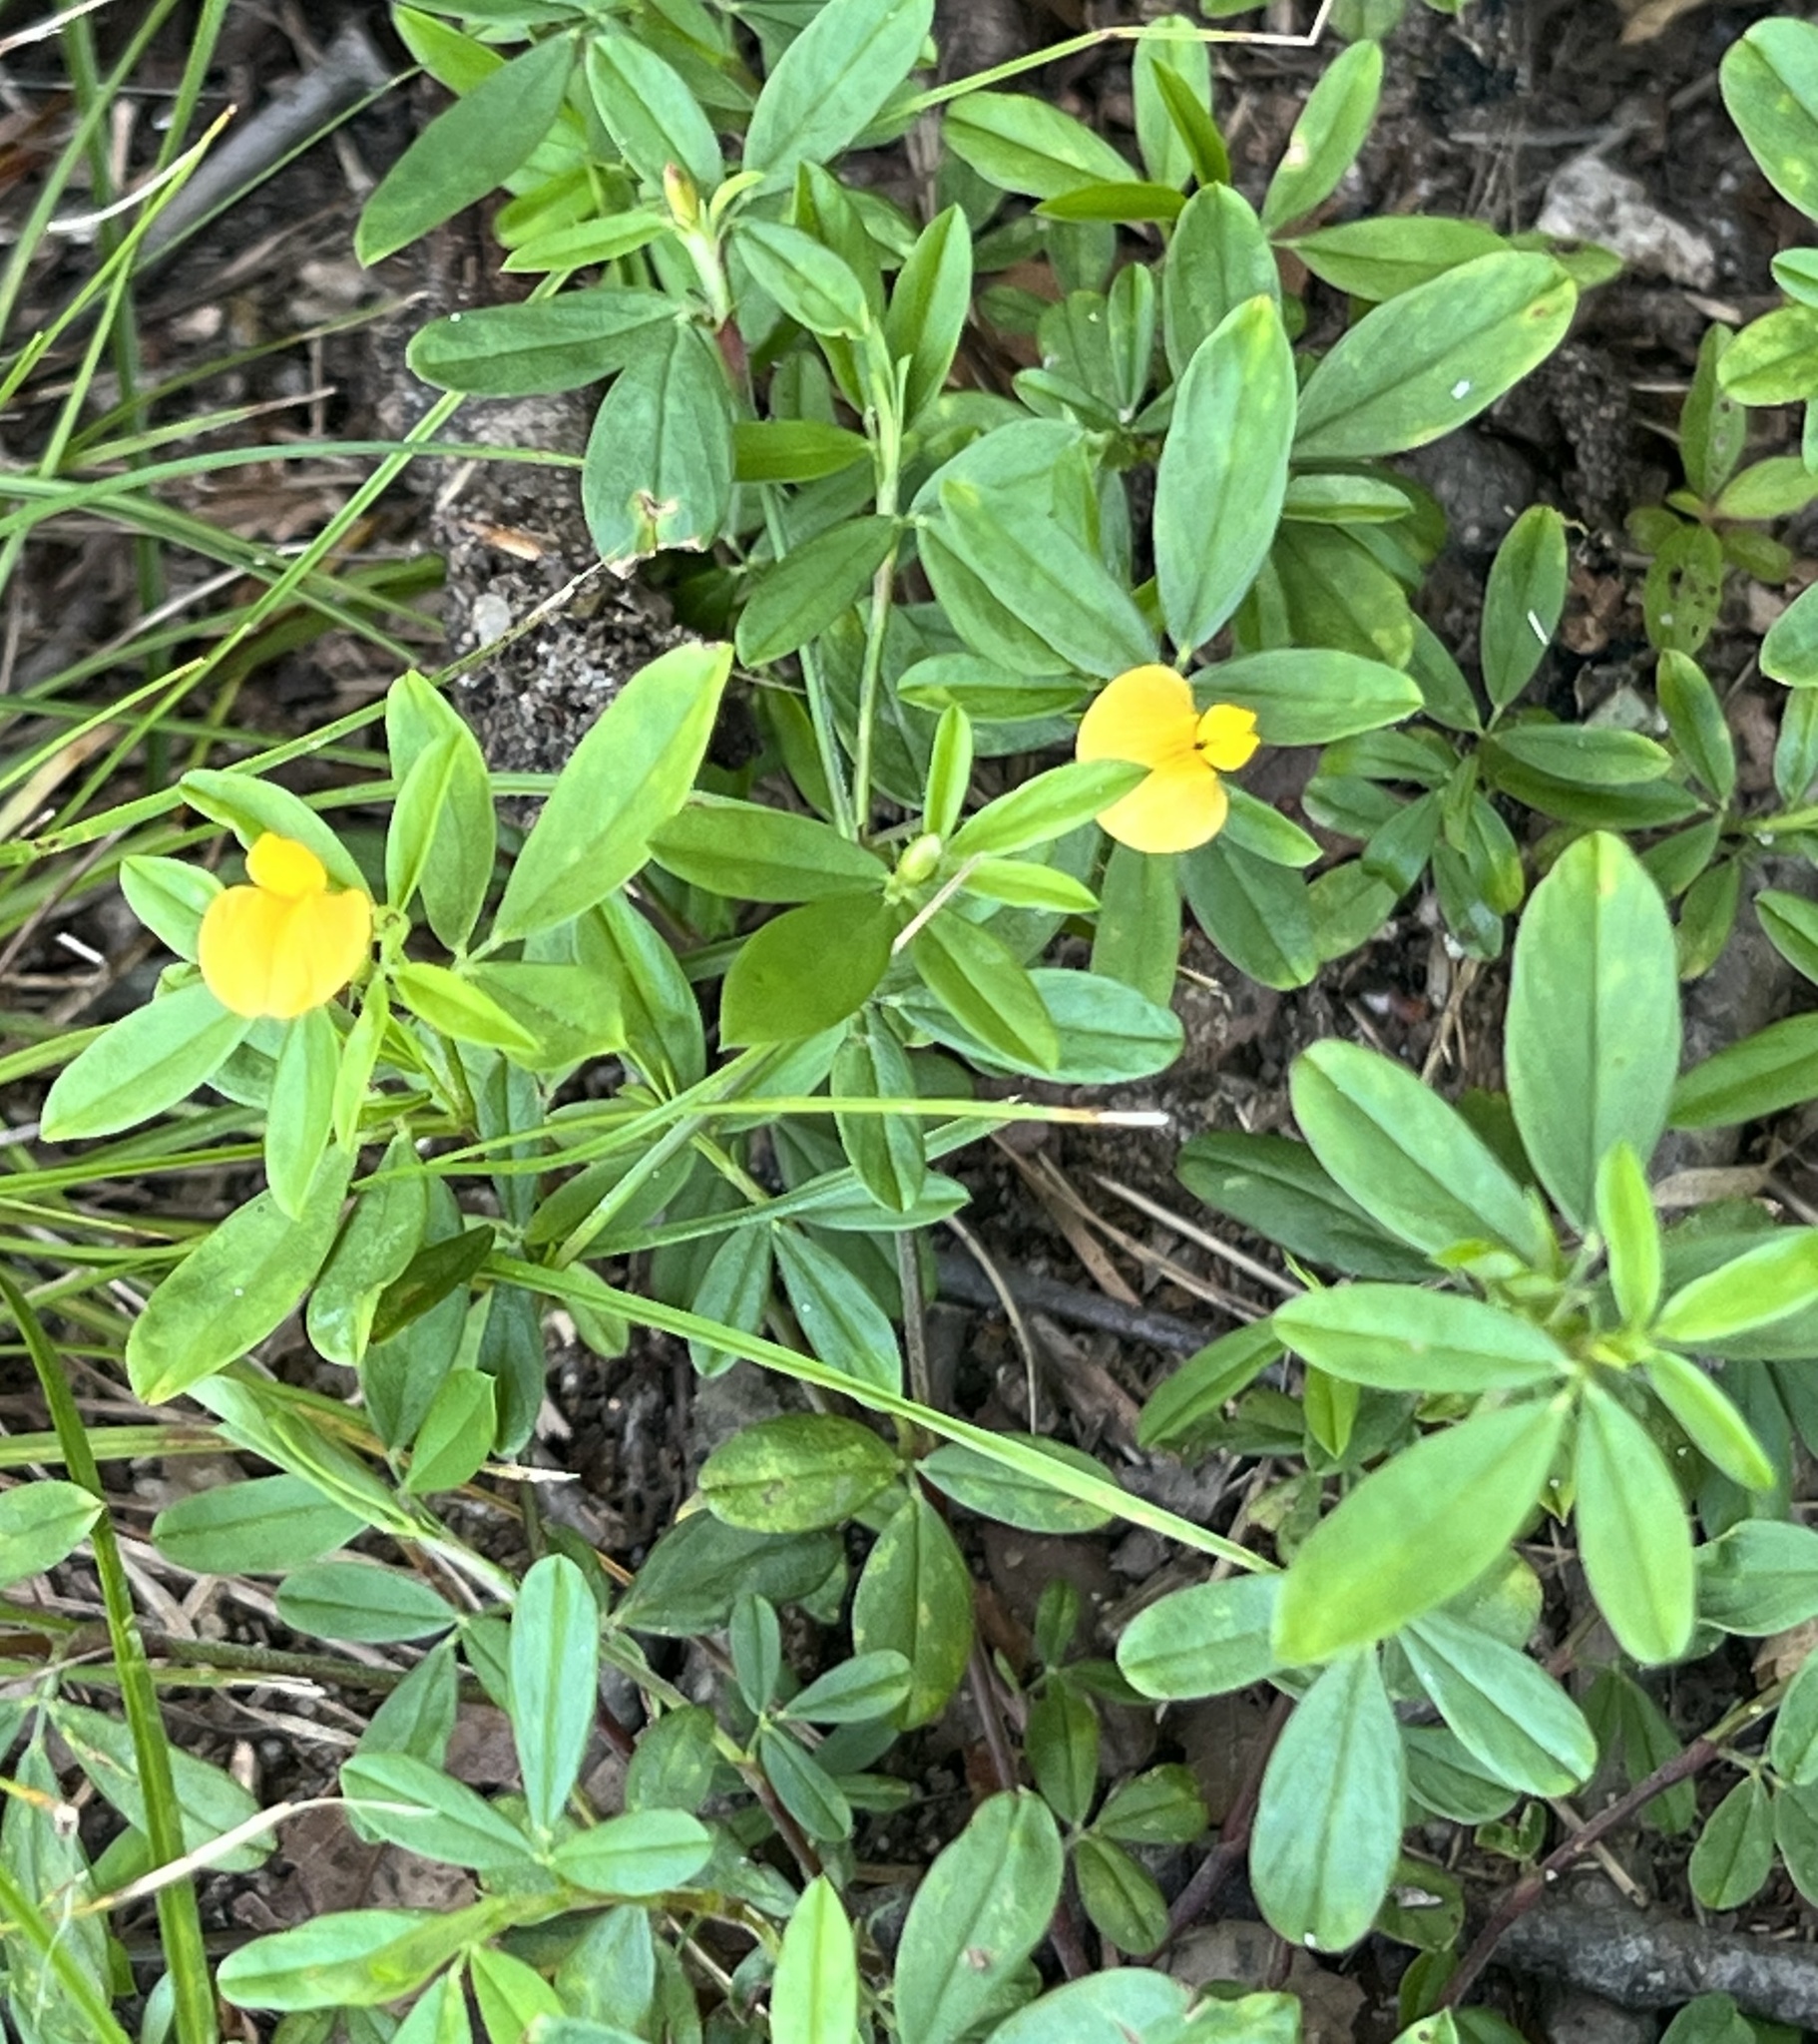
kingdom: Plantae
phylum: Tracheophyta
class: Magnoliopsida
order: Fabales
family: Fabaceae
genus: Stylosanthes
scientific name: Stylosanthes biflora
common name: Two-flower pencil-flower
